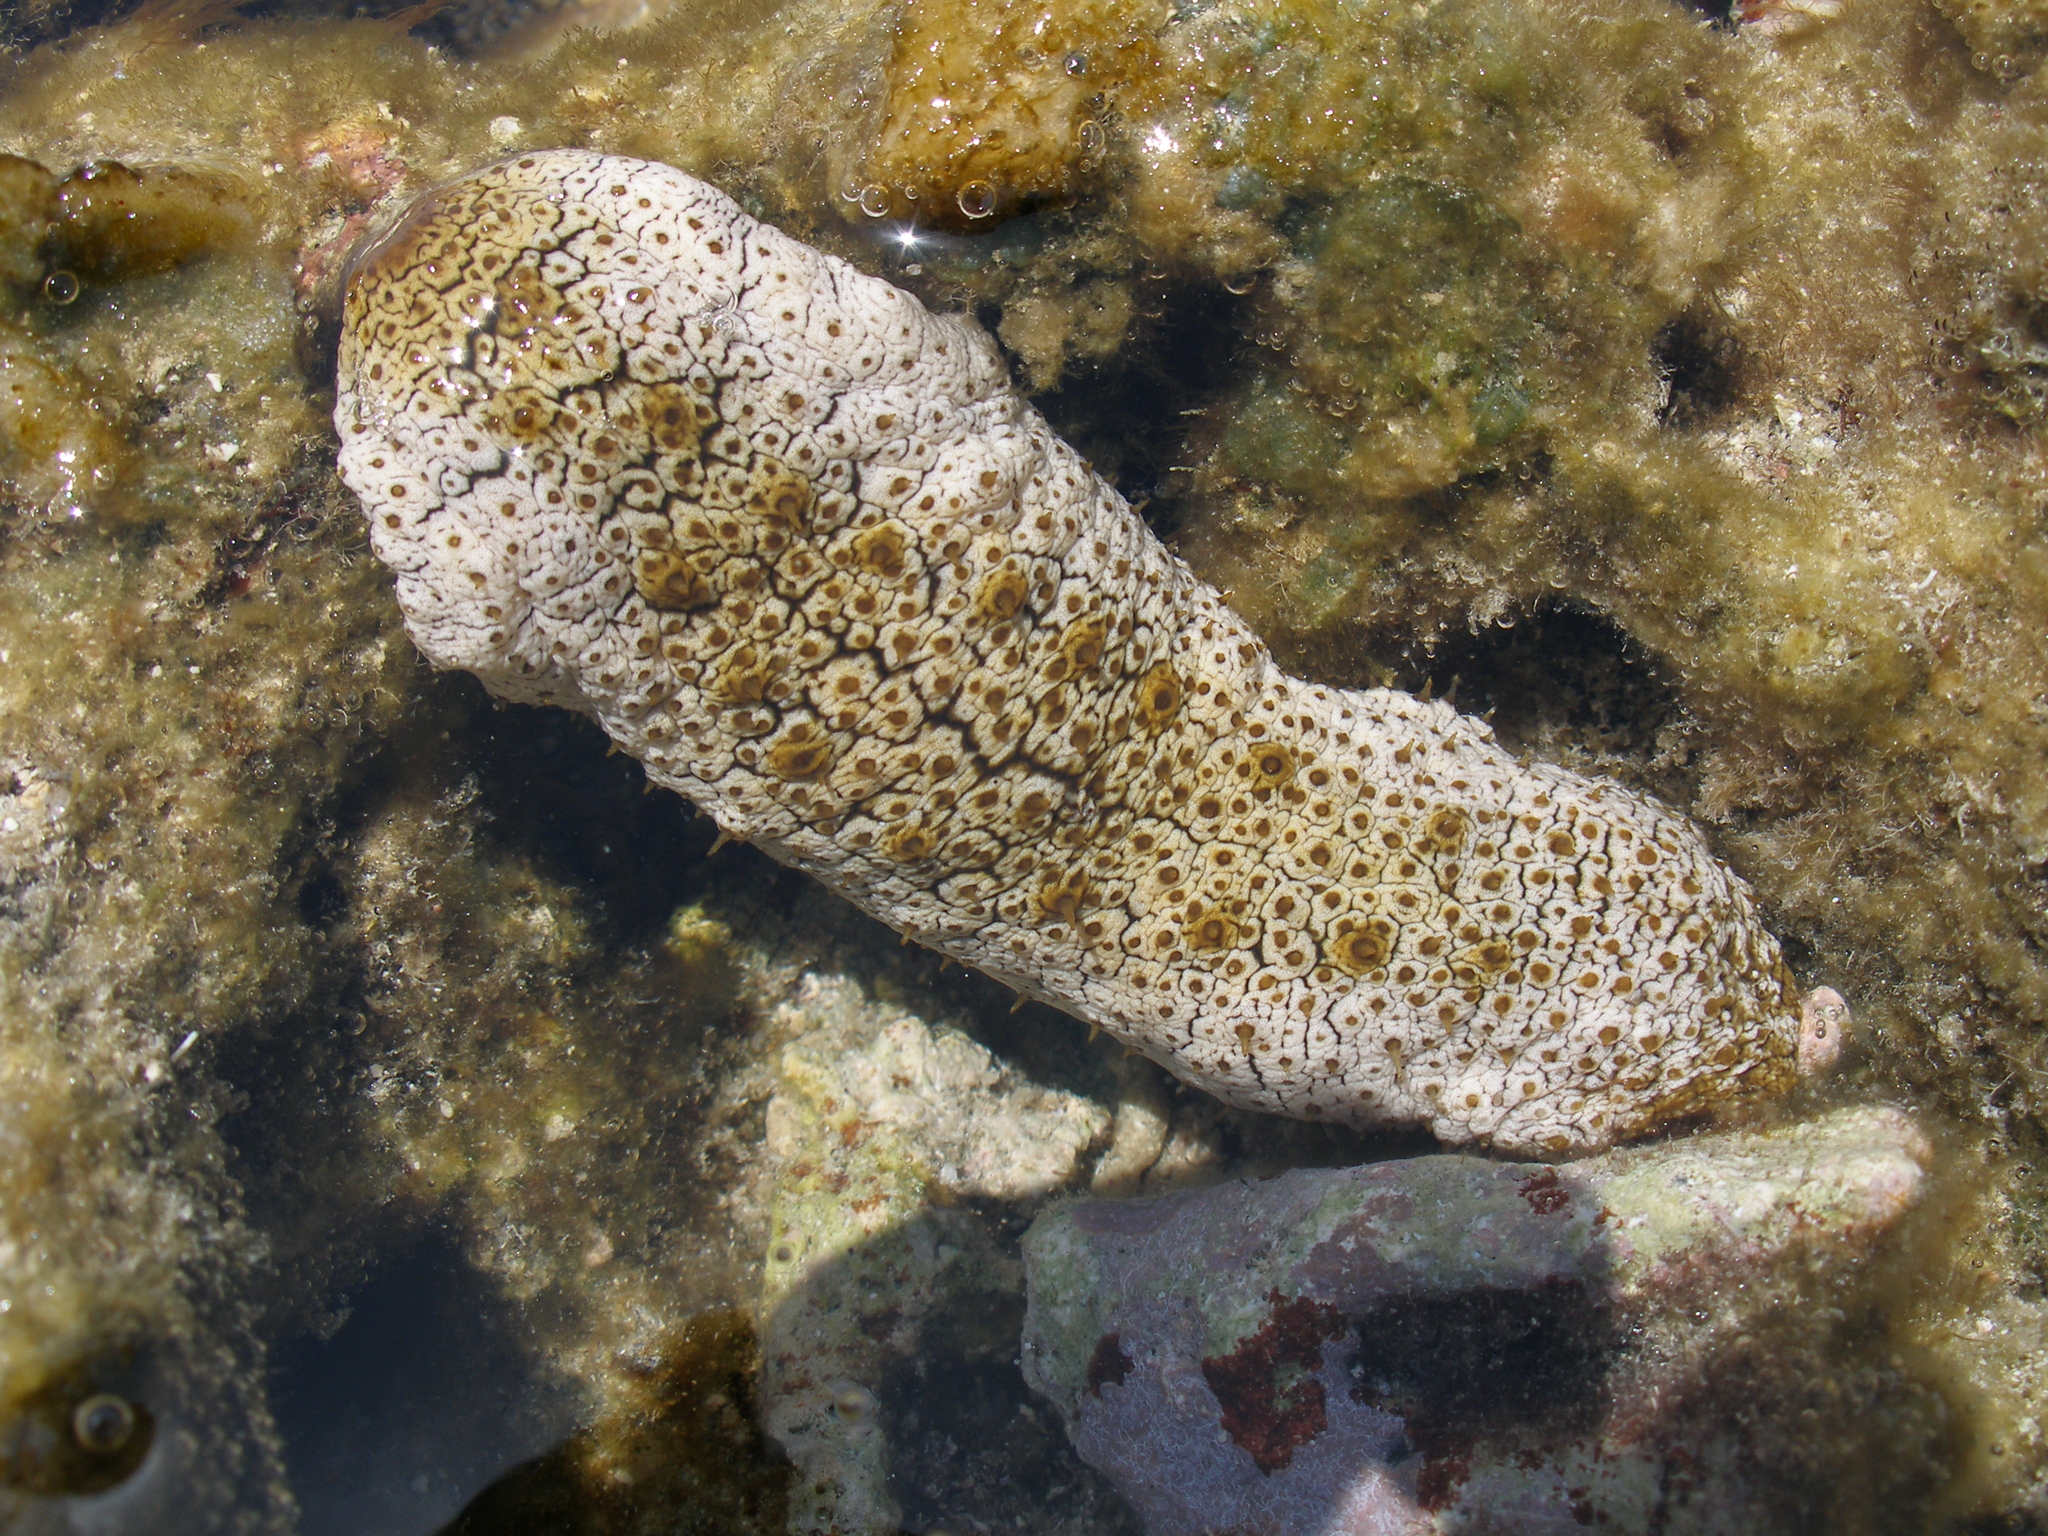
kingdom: Animalia
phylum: Echinodermata
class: Holothuroidea
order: Holothuriida
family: Holothuriidae
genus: Actinopyga
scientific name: Actinopyga mauritiana
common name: Surf redfish
